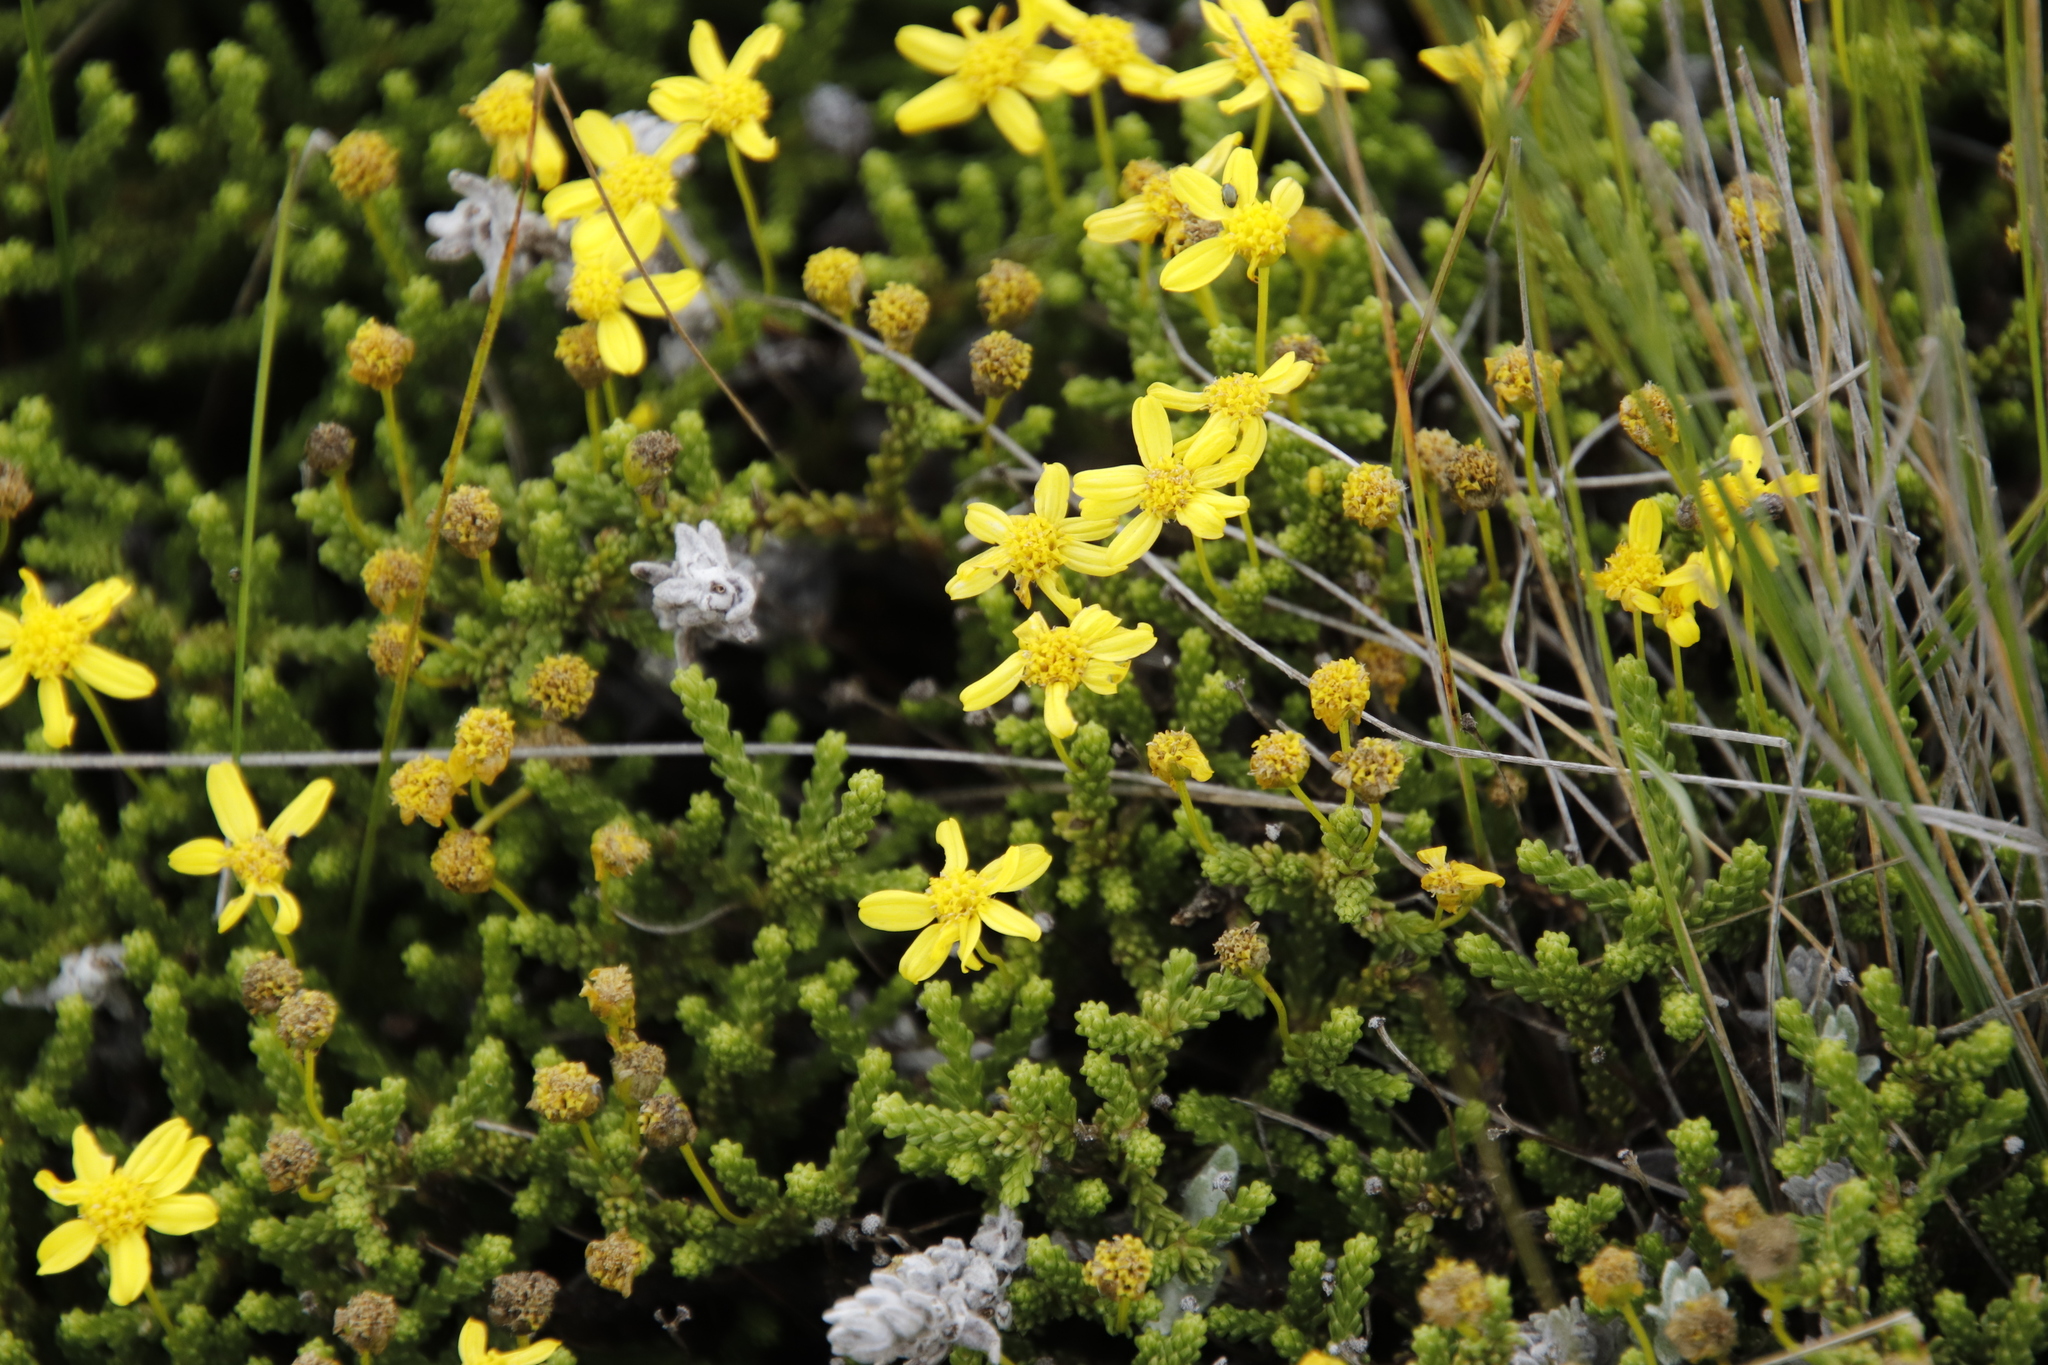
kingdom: Plantae
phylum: Tracheophyta
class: Magnoliopsida
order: Asterales
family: Asteraceae
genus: Euryops
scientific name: Euryops candollei
